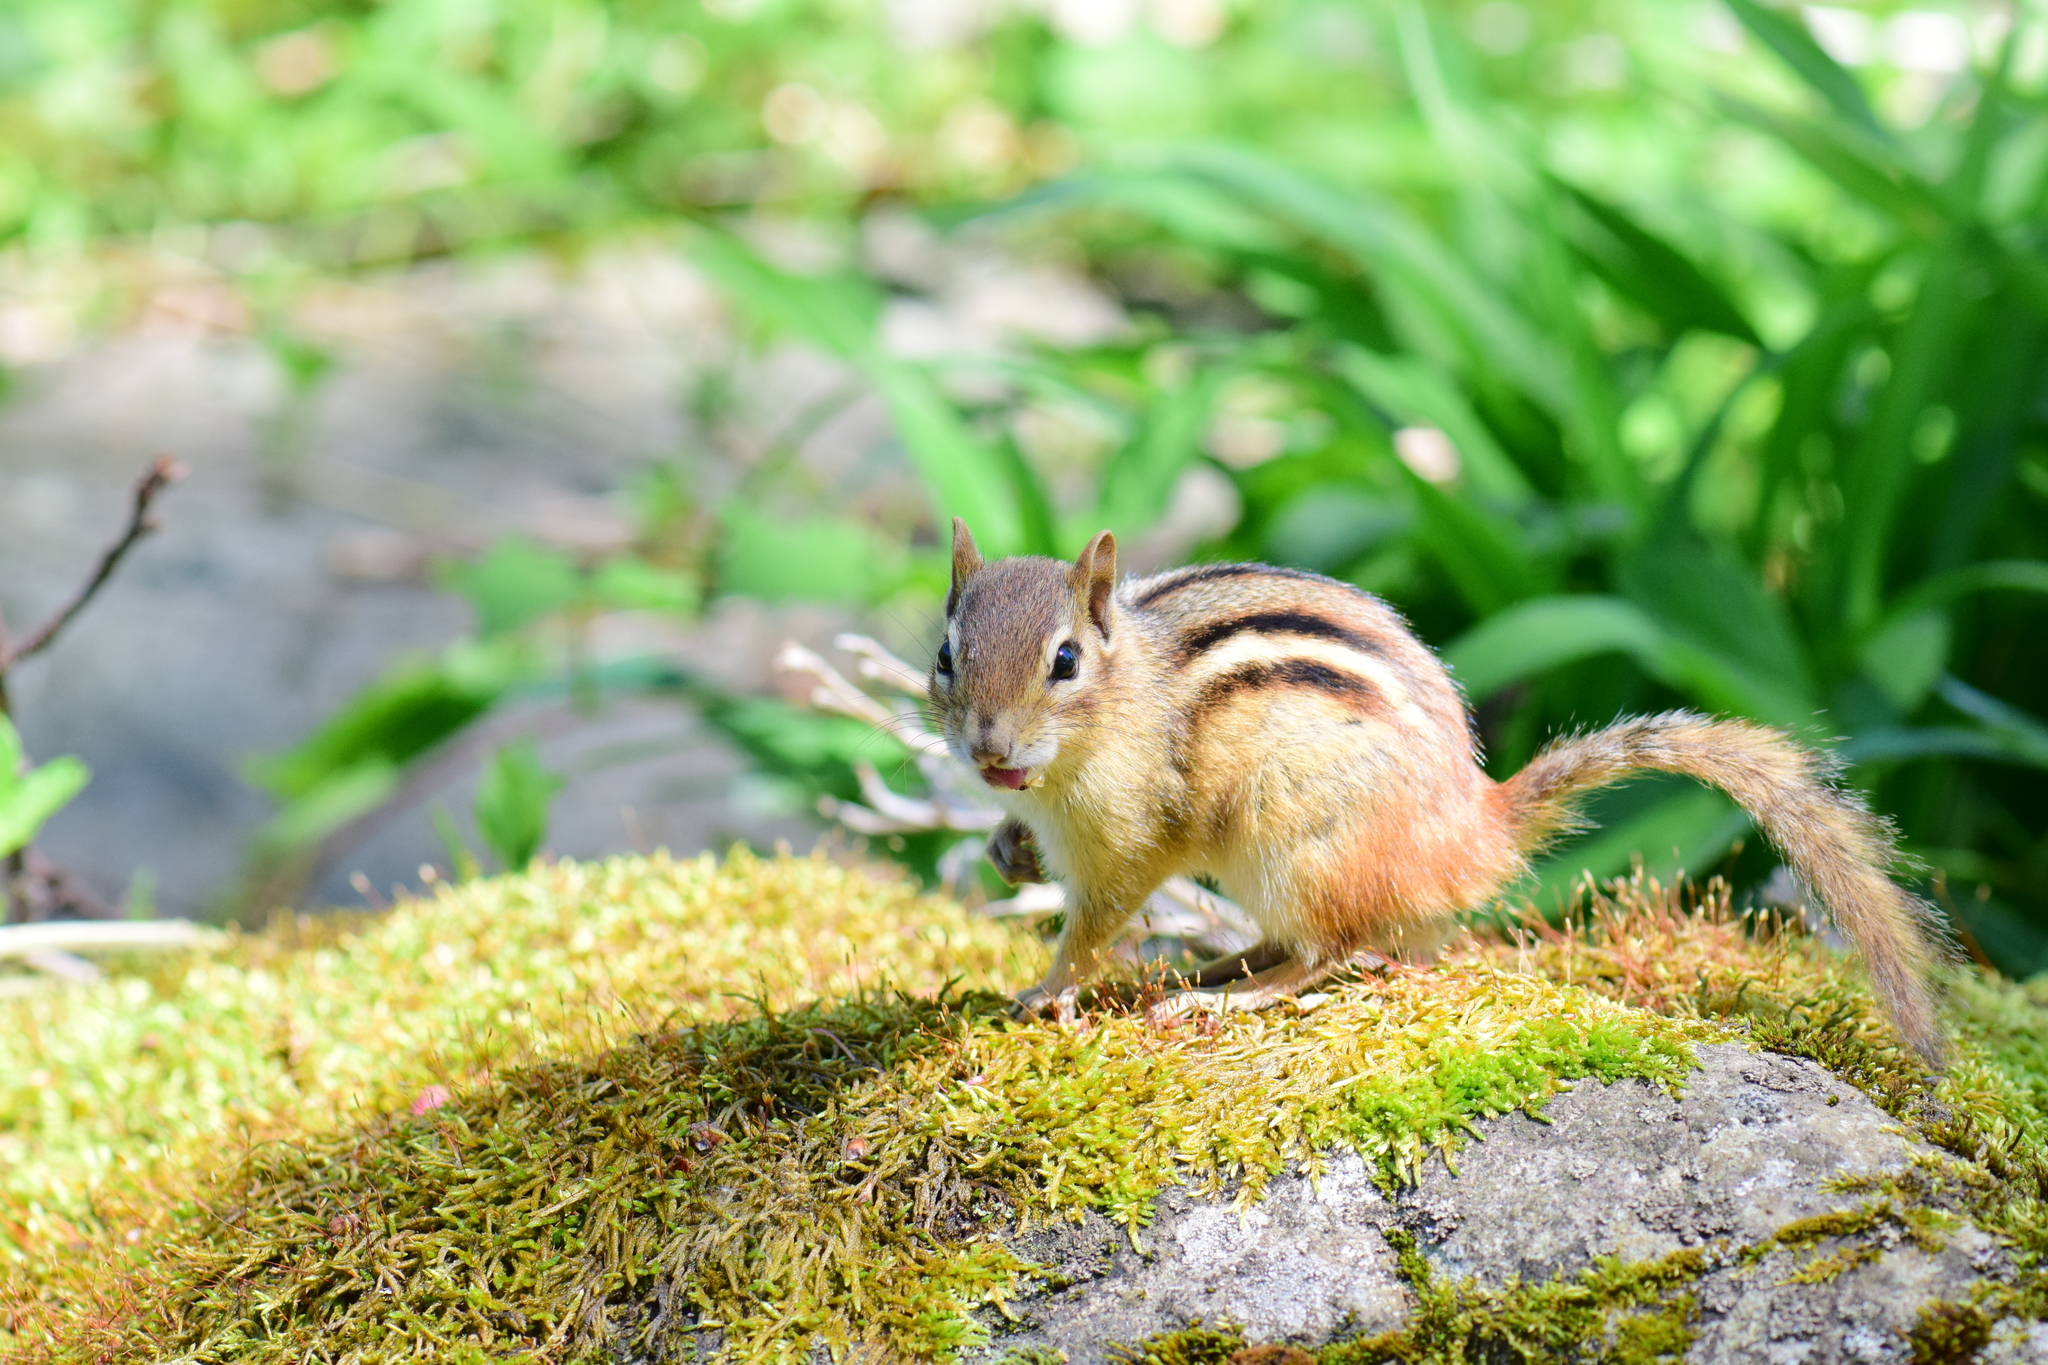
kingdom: Animalia
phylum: Chordata
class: Mammalia
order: Rodentia
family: Sciuridae
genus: Tamias
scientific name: Tamias striatus
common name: Eastern chipmunk
